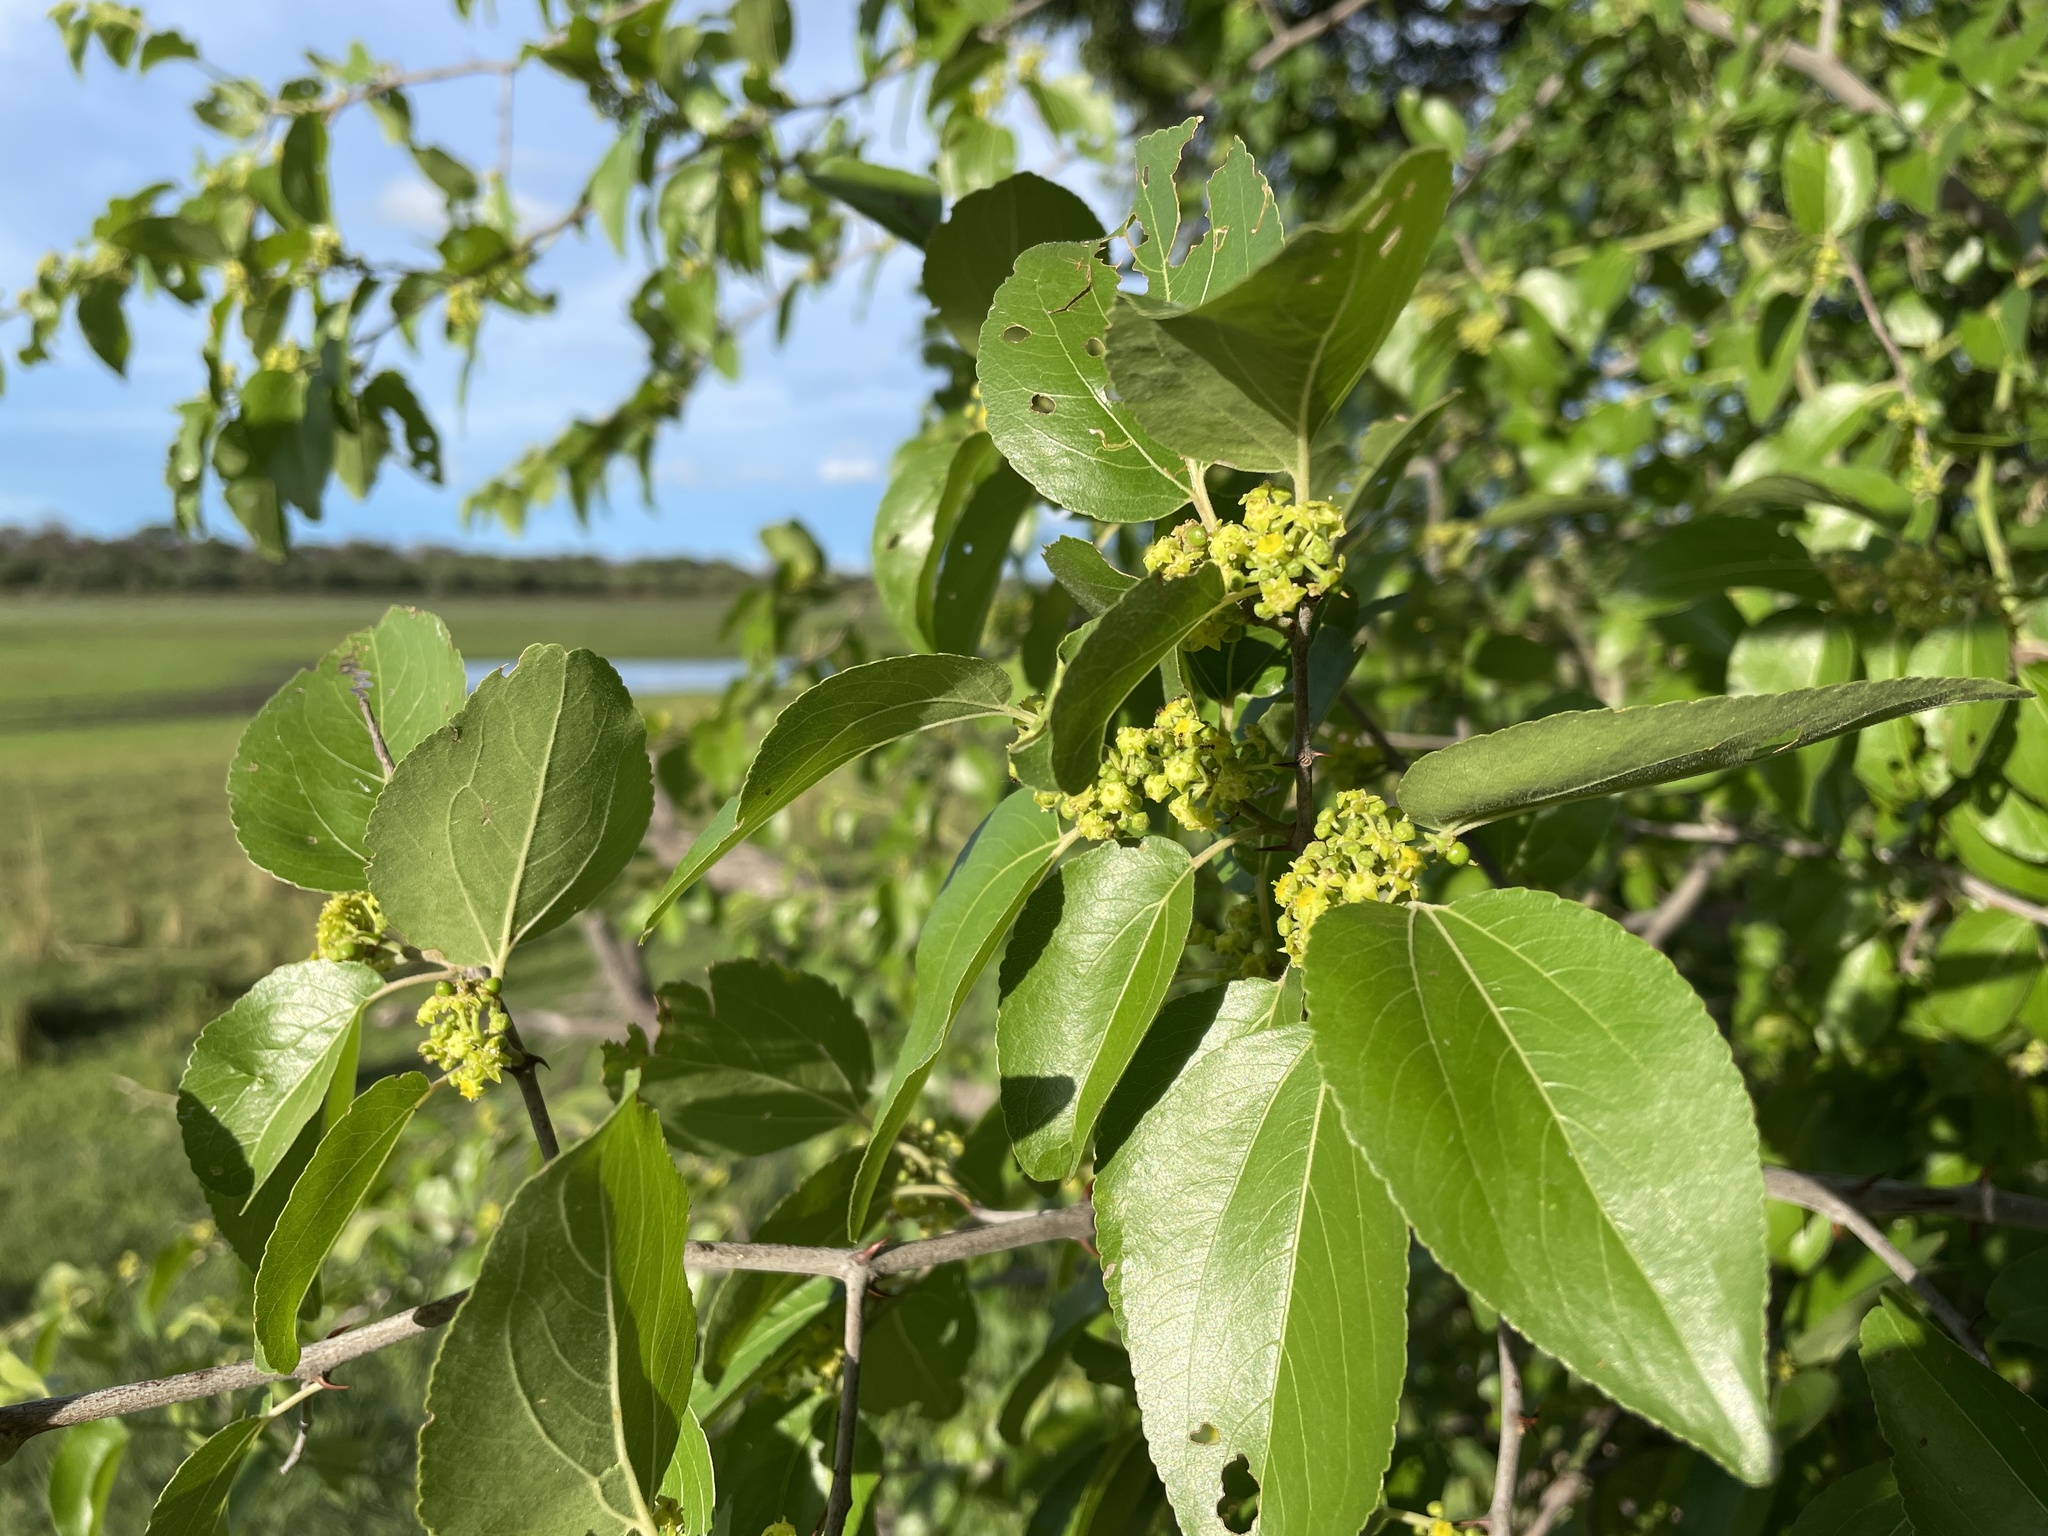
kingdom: Plantae
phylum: Tracheophyta
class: Magnoliopsida
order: Rosales
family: Rhamnaceae
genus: Ziziphus
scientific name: Ziziphus mucronata
